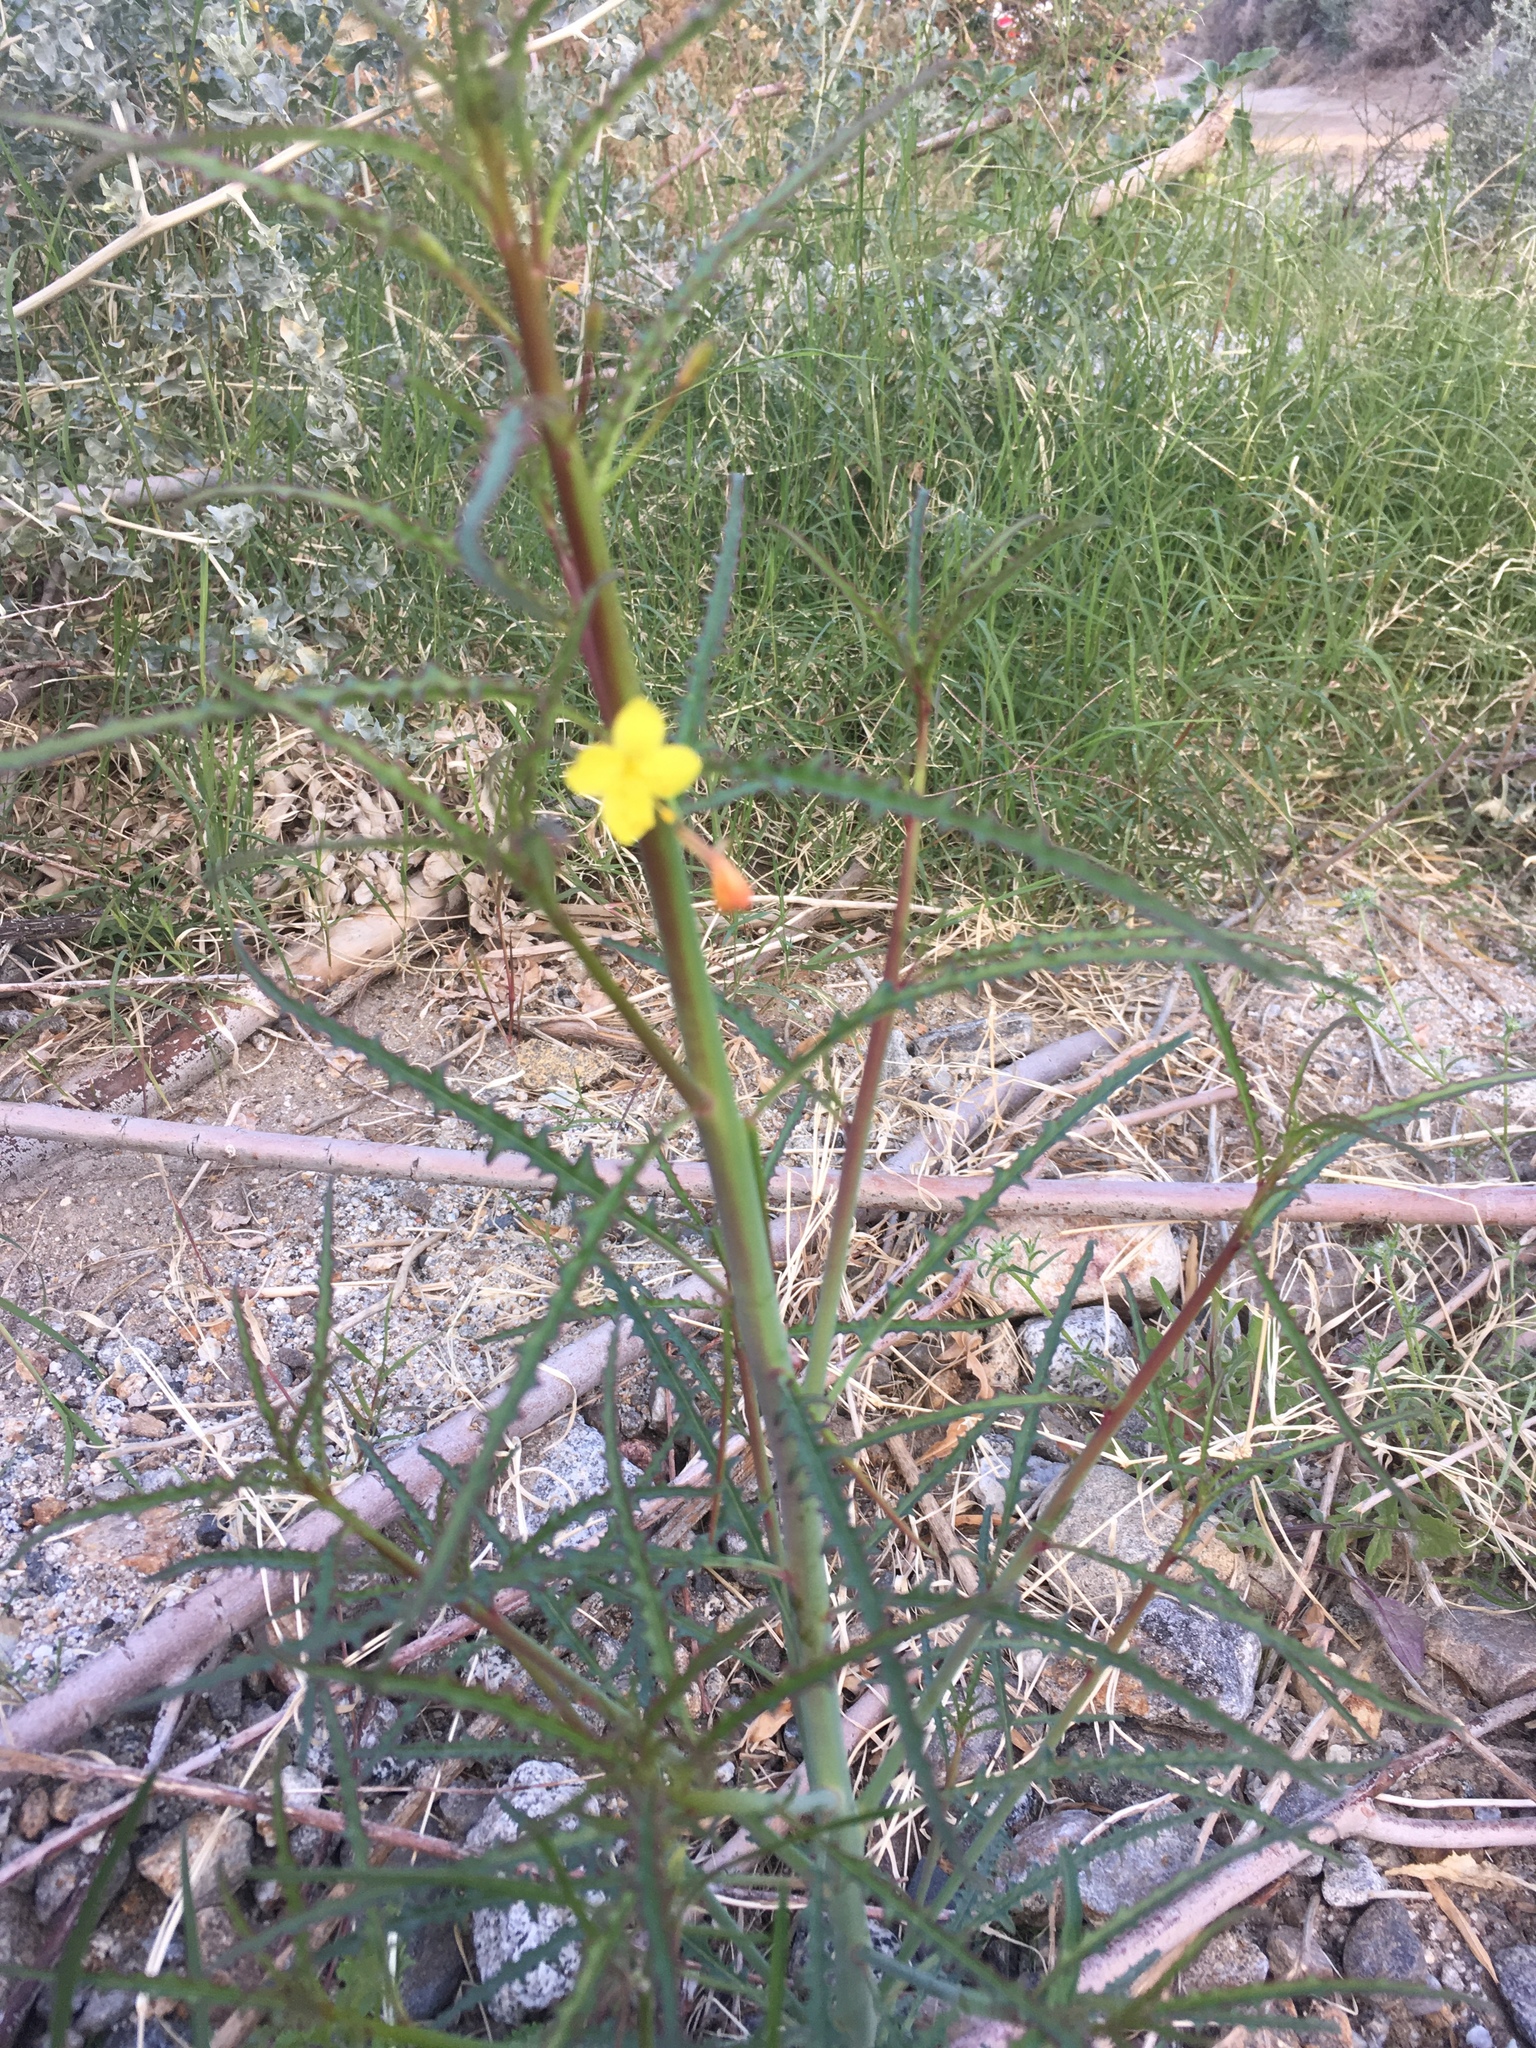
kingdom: Plantae
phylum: Tracheophyta
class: Magnoliopsida
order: Myrtales
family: Onagraceae
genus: Eulobus
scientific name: Eulobus californicus
